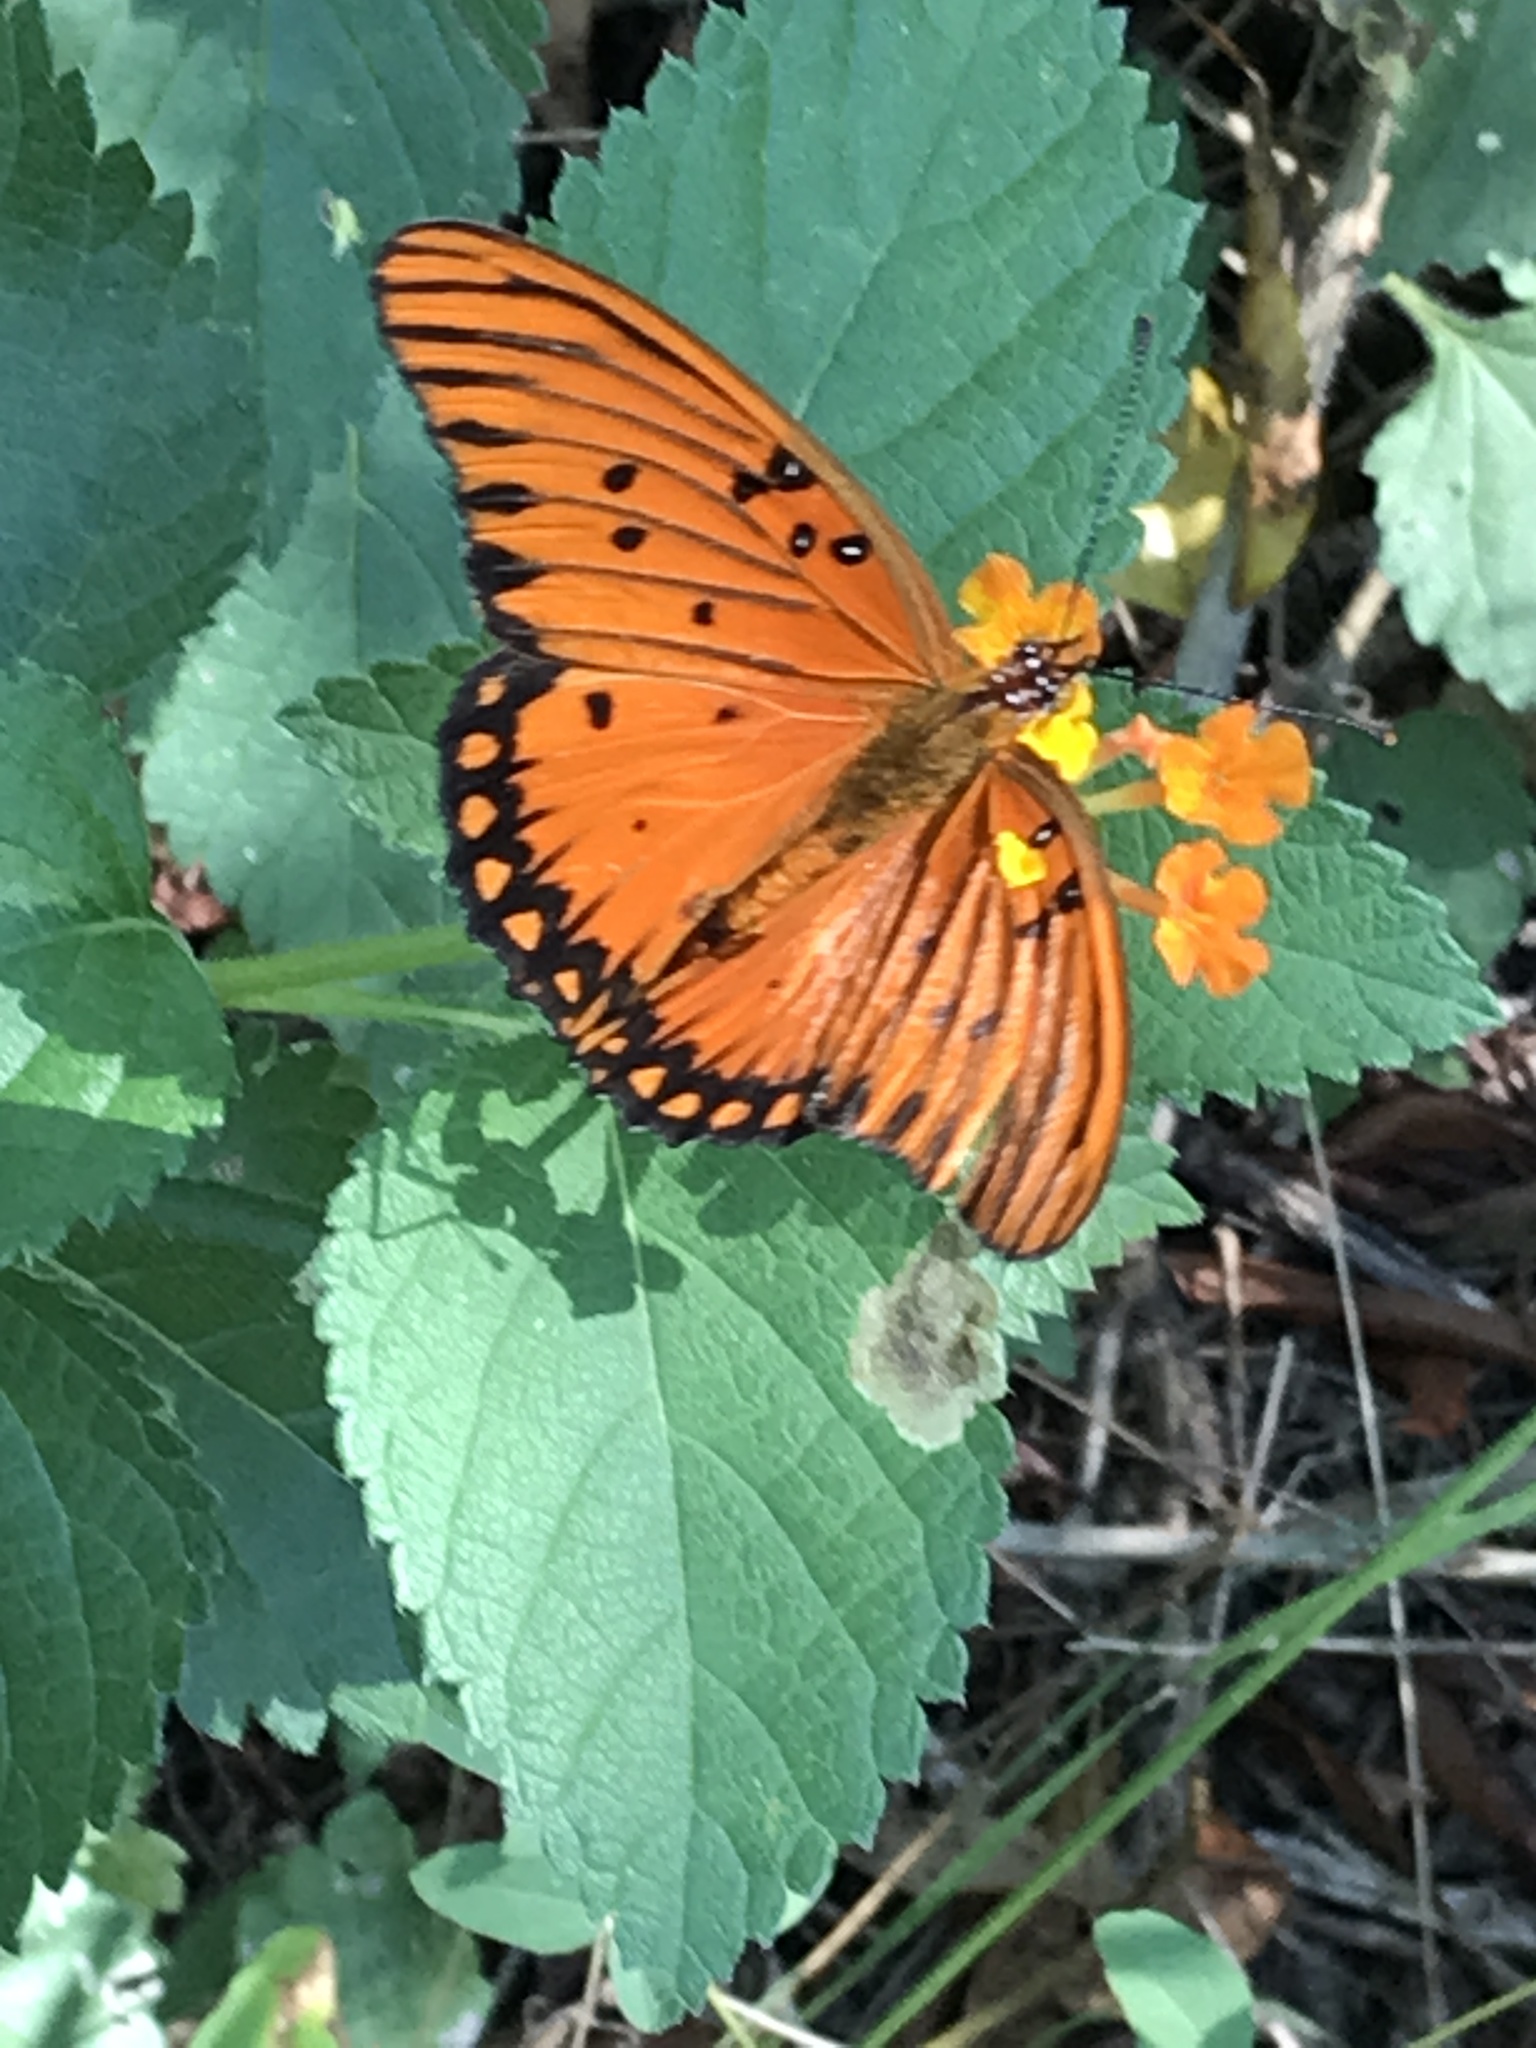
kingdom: Animalia
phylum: Arthropoda
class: Insecta
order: Lepidoptera
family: Nymphalidae
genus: Dione
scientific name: Dione vanillae
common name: Gulf fritillary
